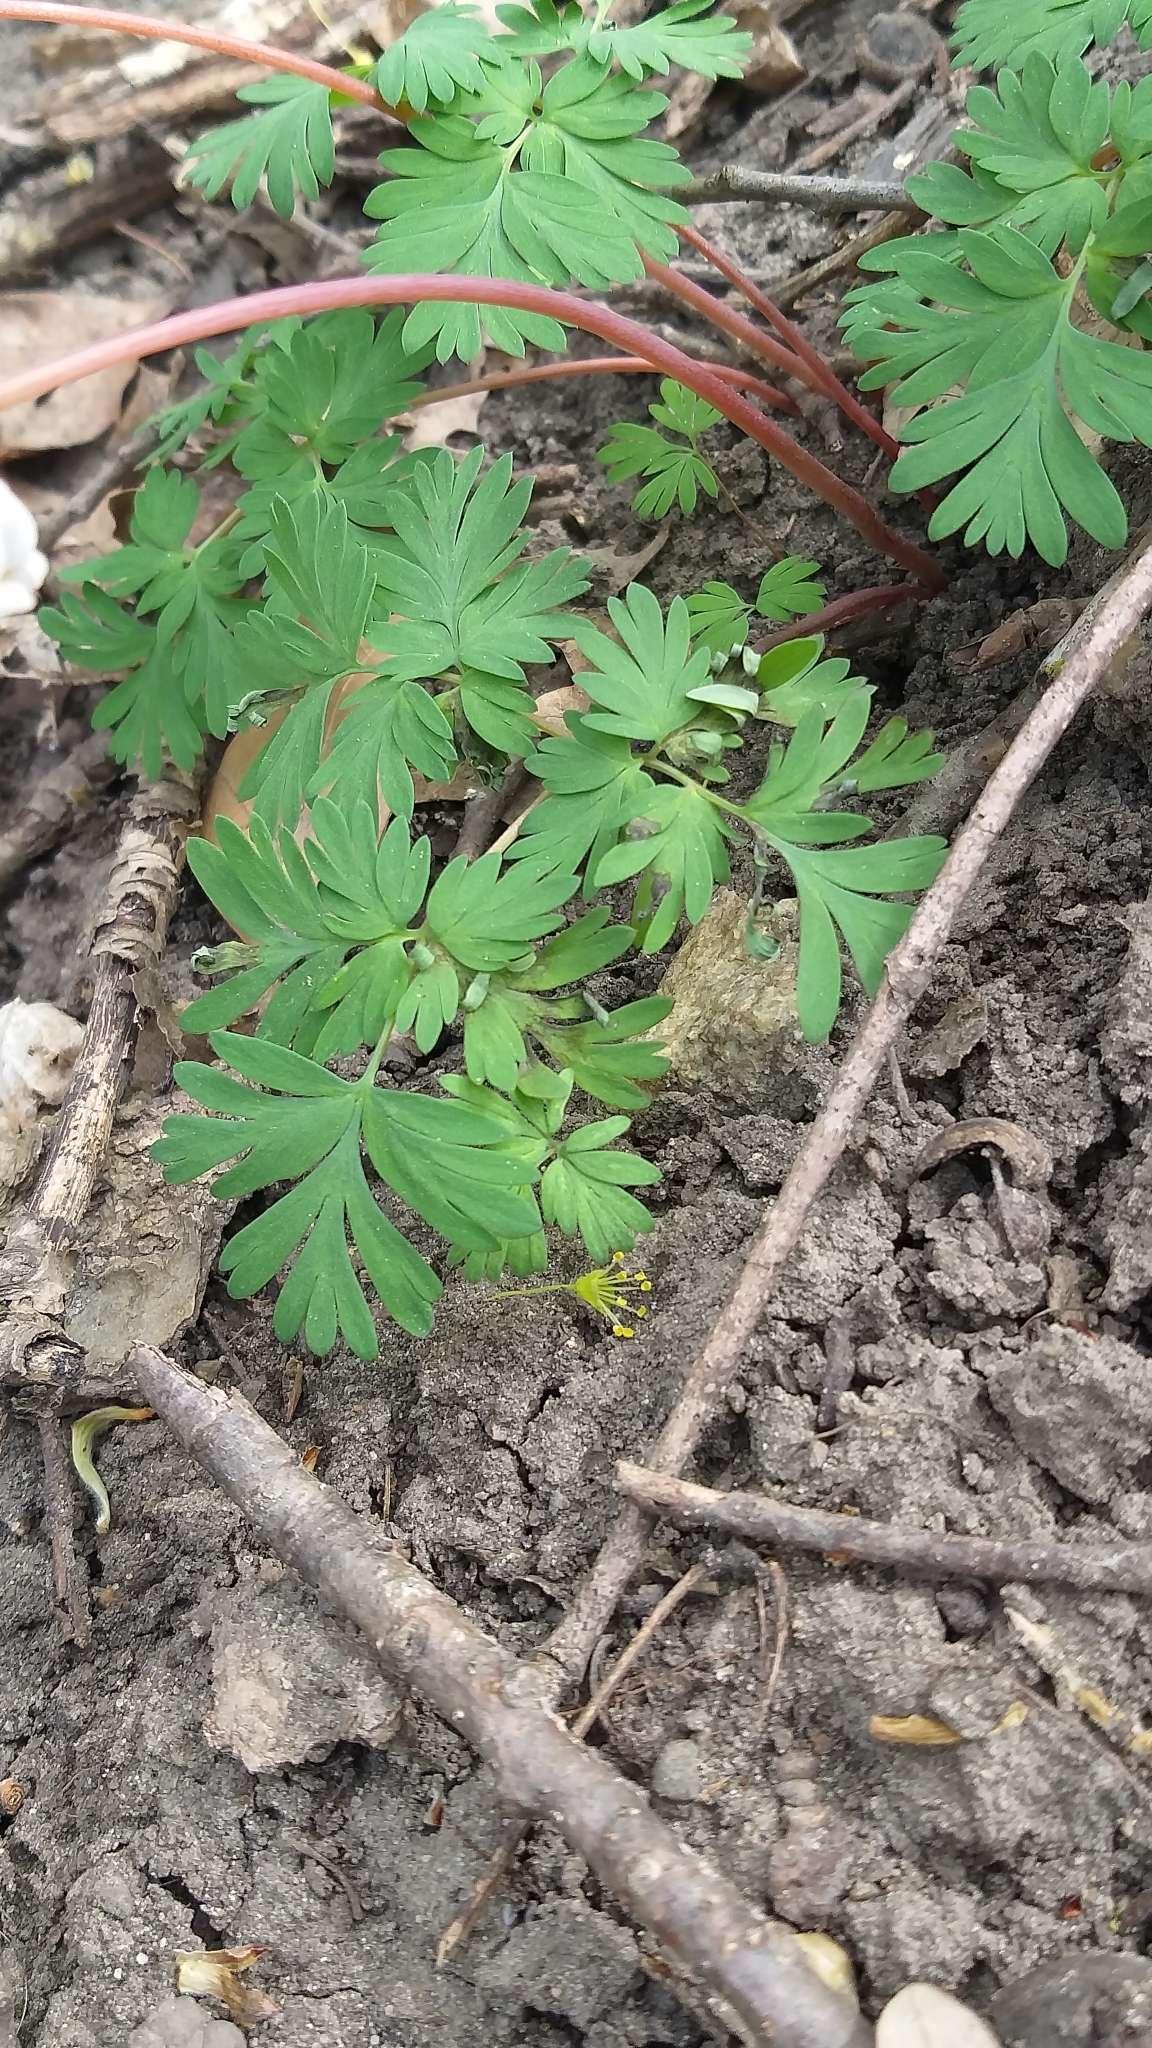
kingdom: Plantae
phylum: Tracheophyta
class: Magnoliopsida
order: Ranunculales
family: Papaveraceae
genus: Dicentra
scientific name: Dicentra cucullaria
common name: Dutchman's breeches
